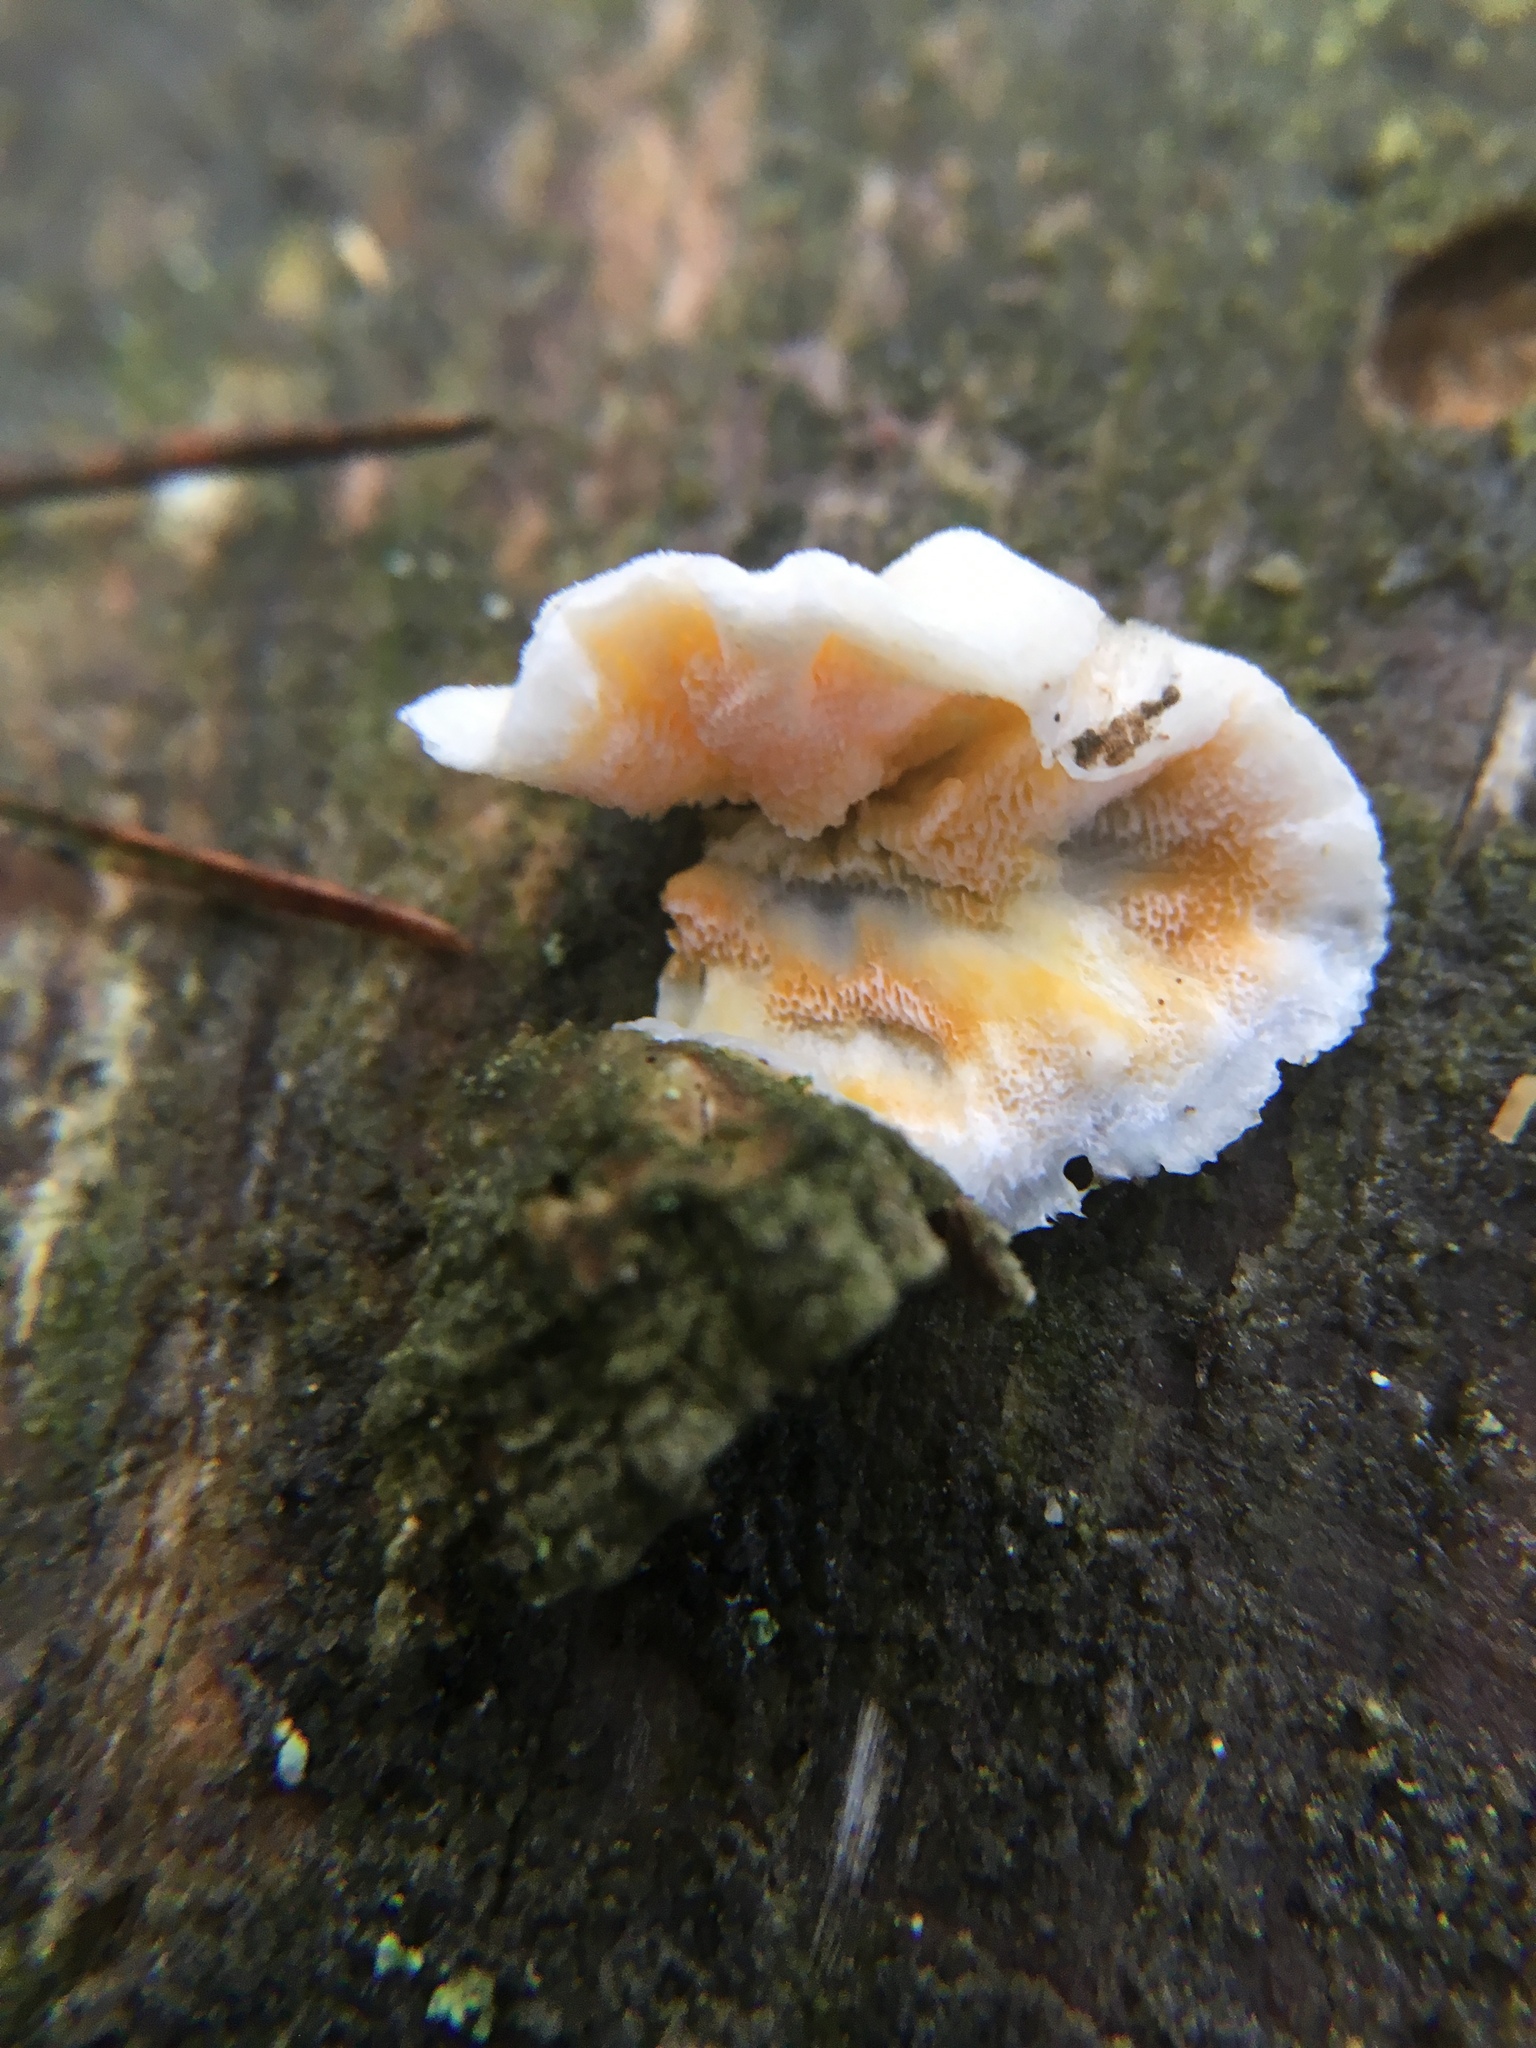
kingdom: Fungi
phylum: Basidiomycota
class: Agaricomycetes
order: Polyporales
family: Incrustoporiaceae
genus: Skeletocutis
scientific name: Skeletocutis amorpha
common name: Rusty crust
